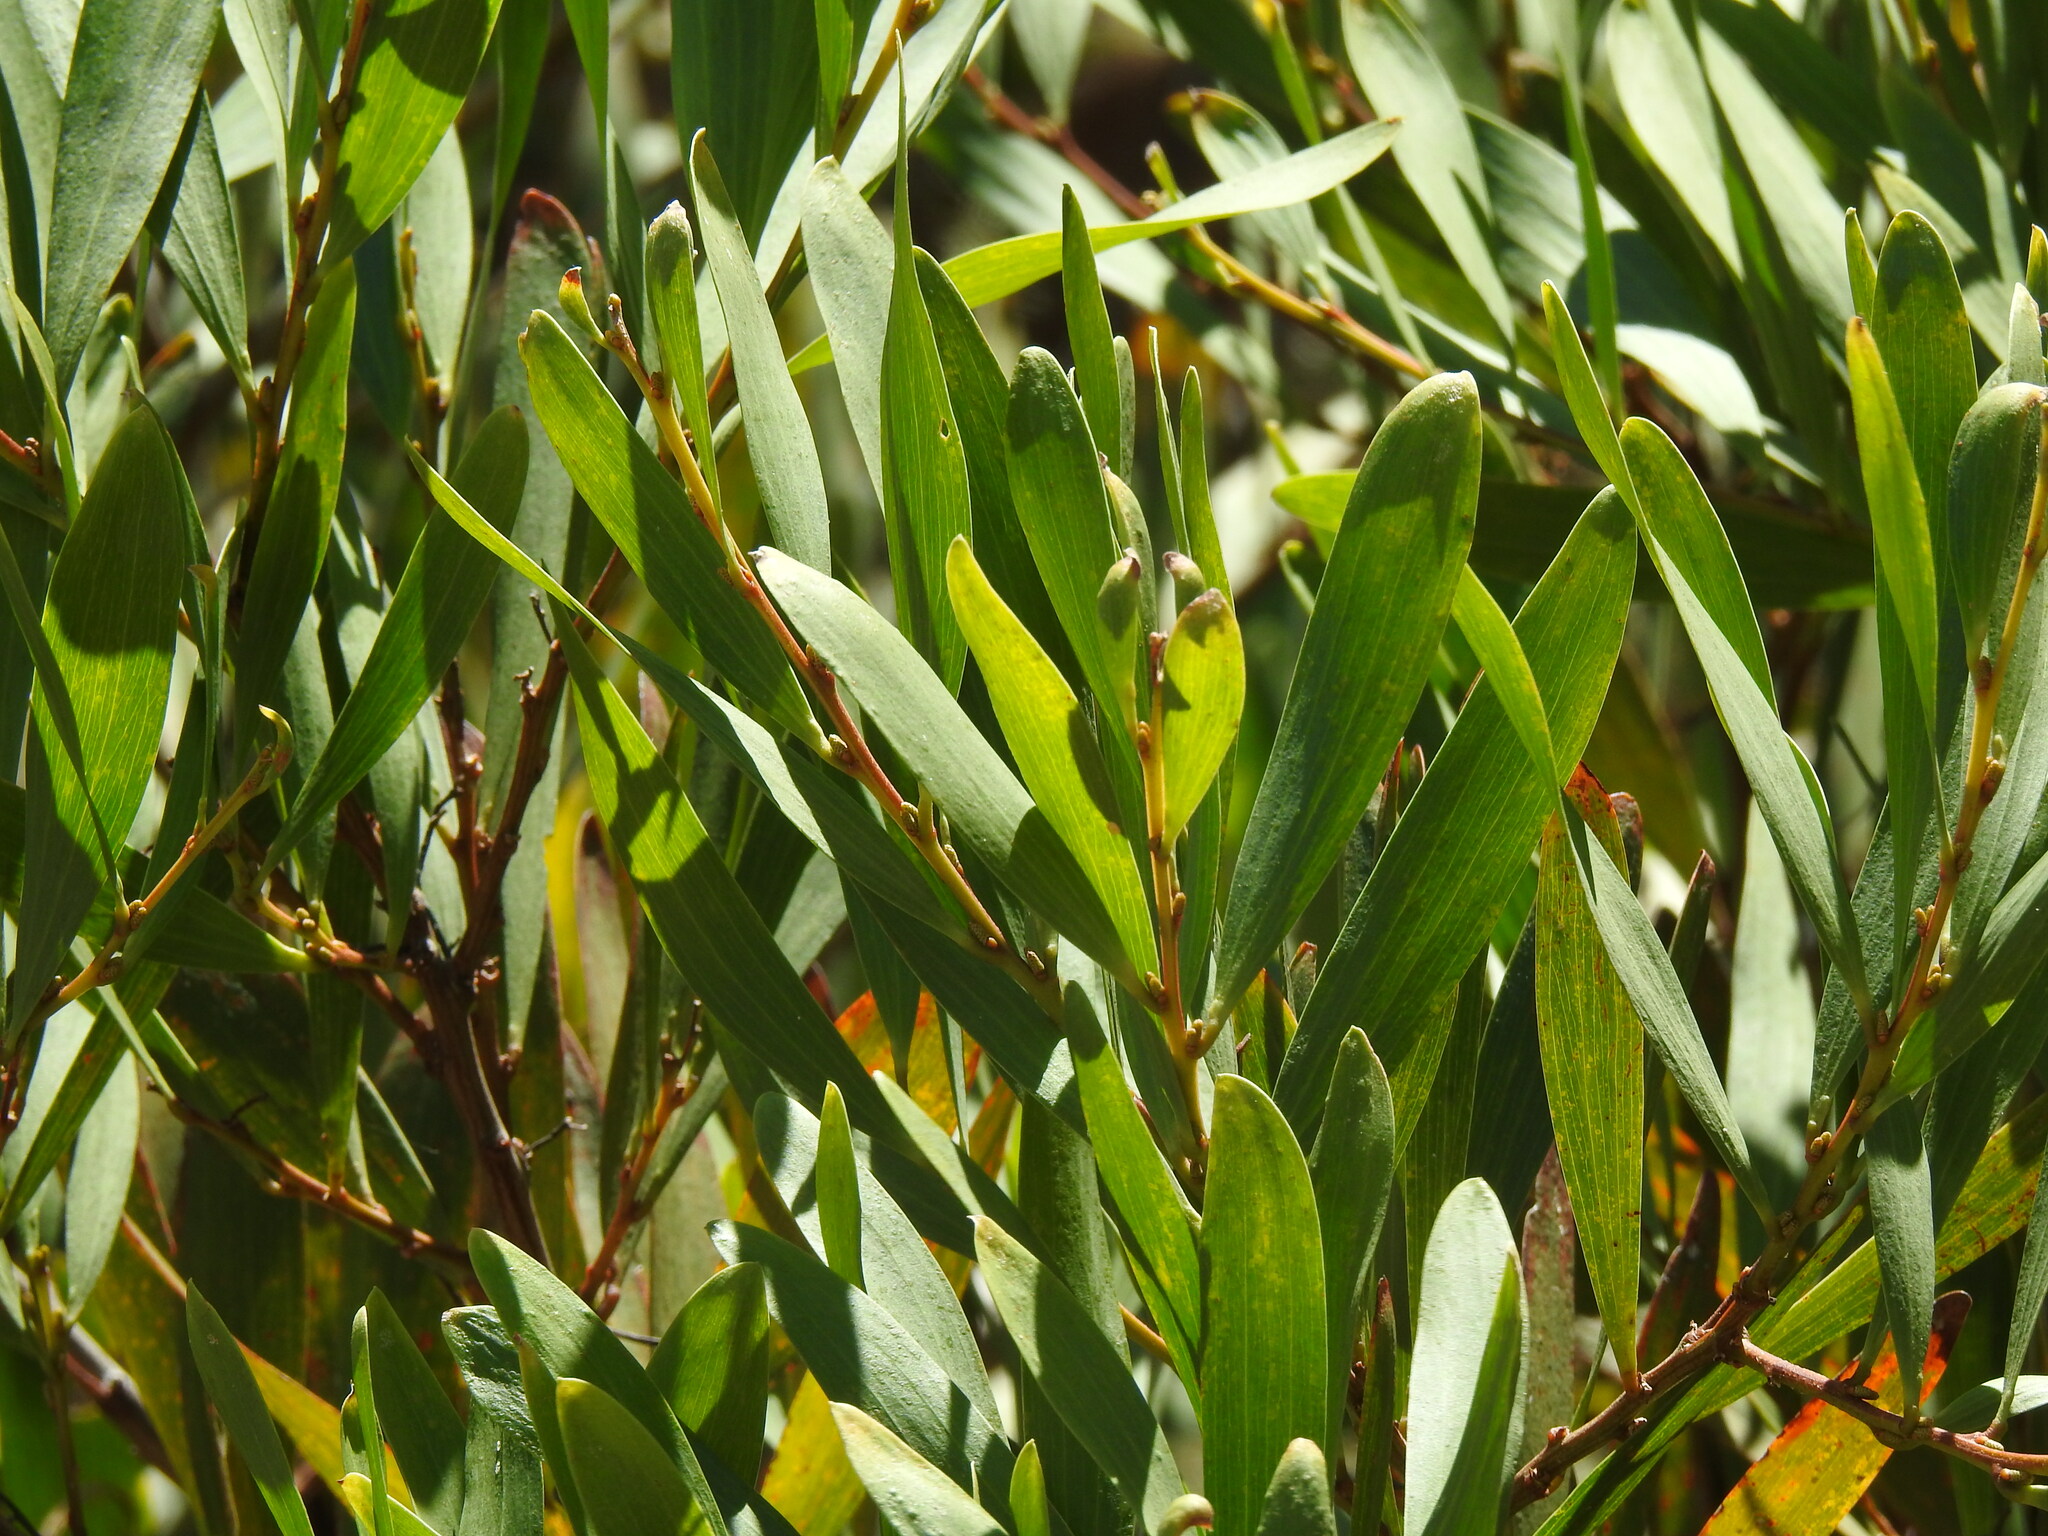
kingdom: Plantae
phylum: Tracheophyta
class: Magnoliopsida
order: Fabales
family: Fabaceae
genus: Acacia
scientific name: Acacia longifolia
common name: Sydney golden wattle
